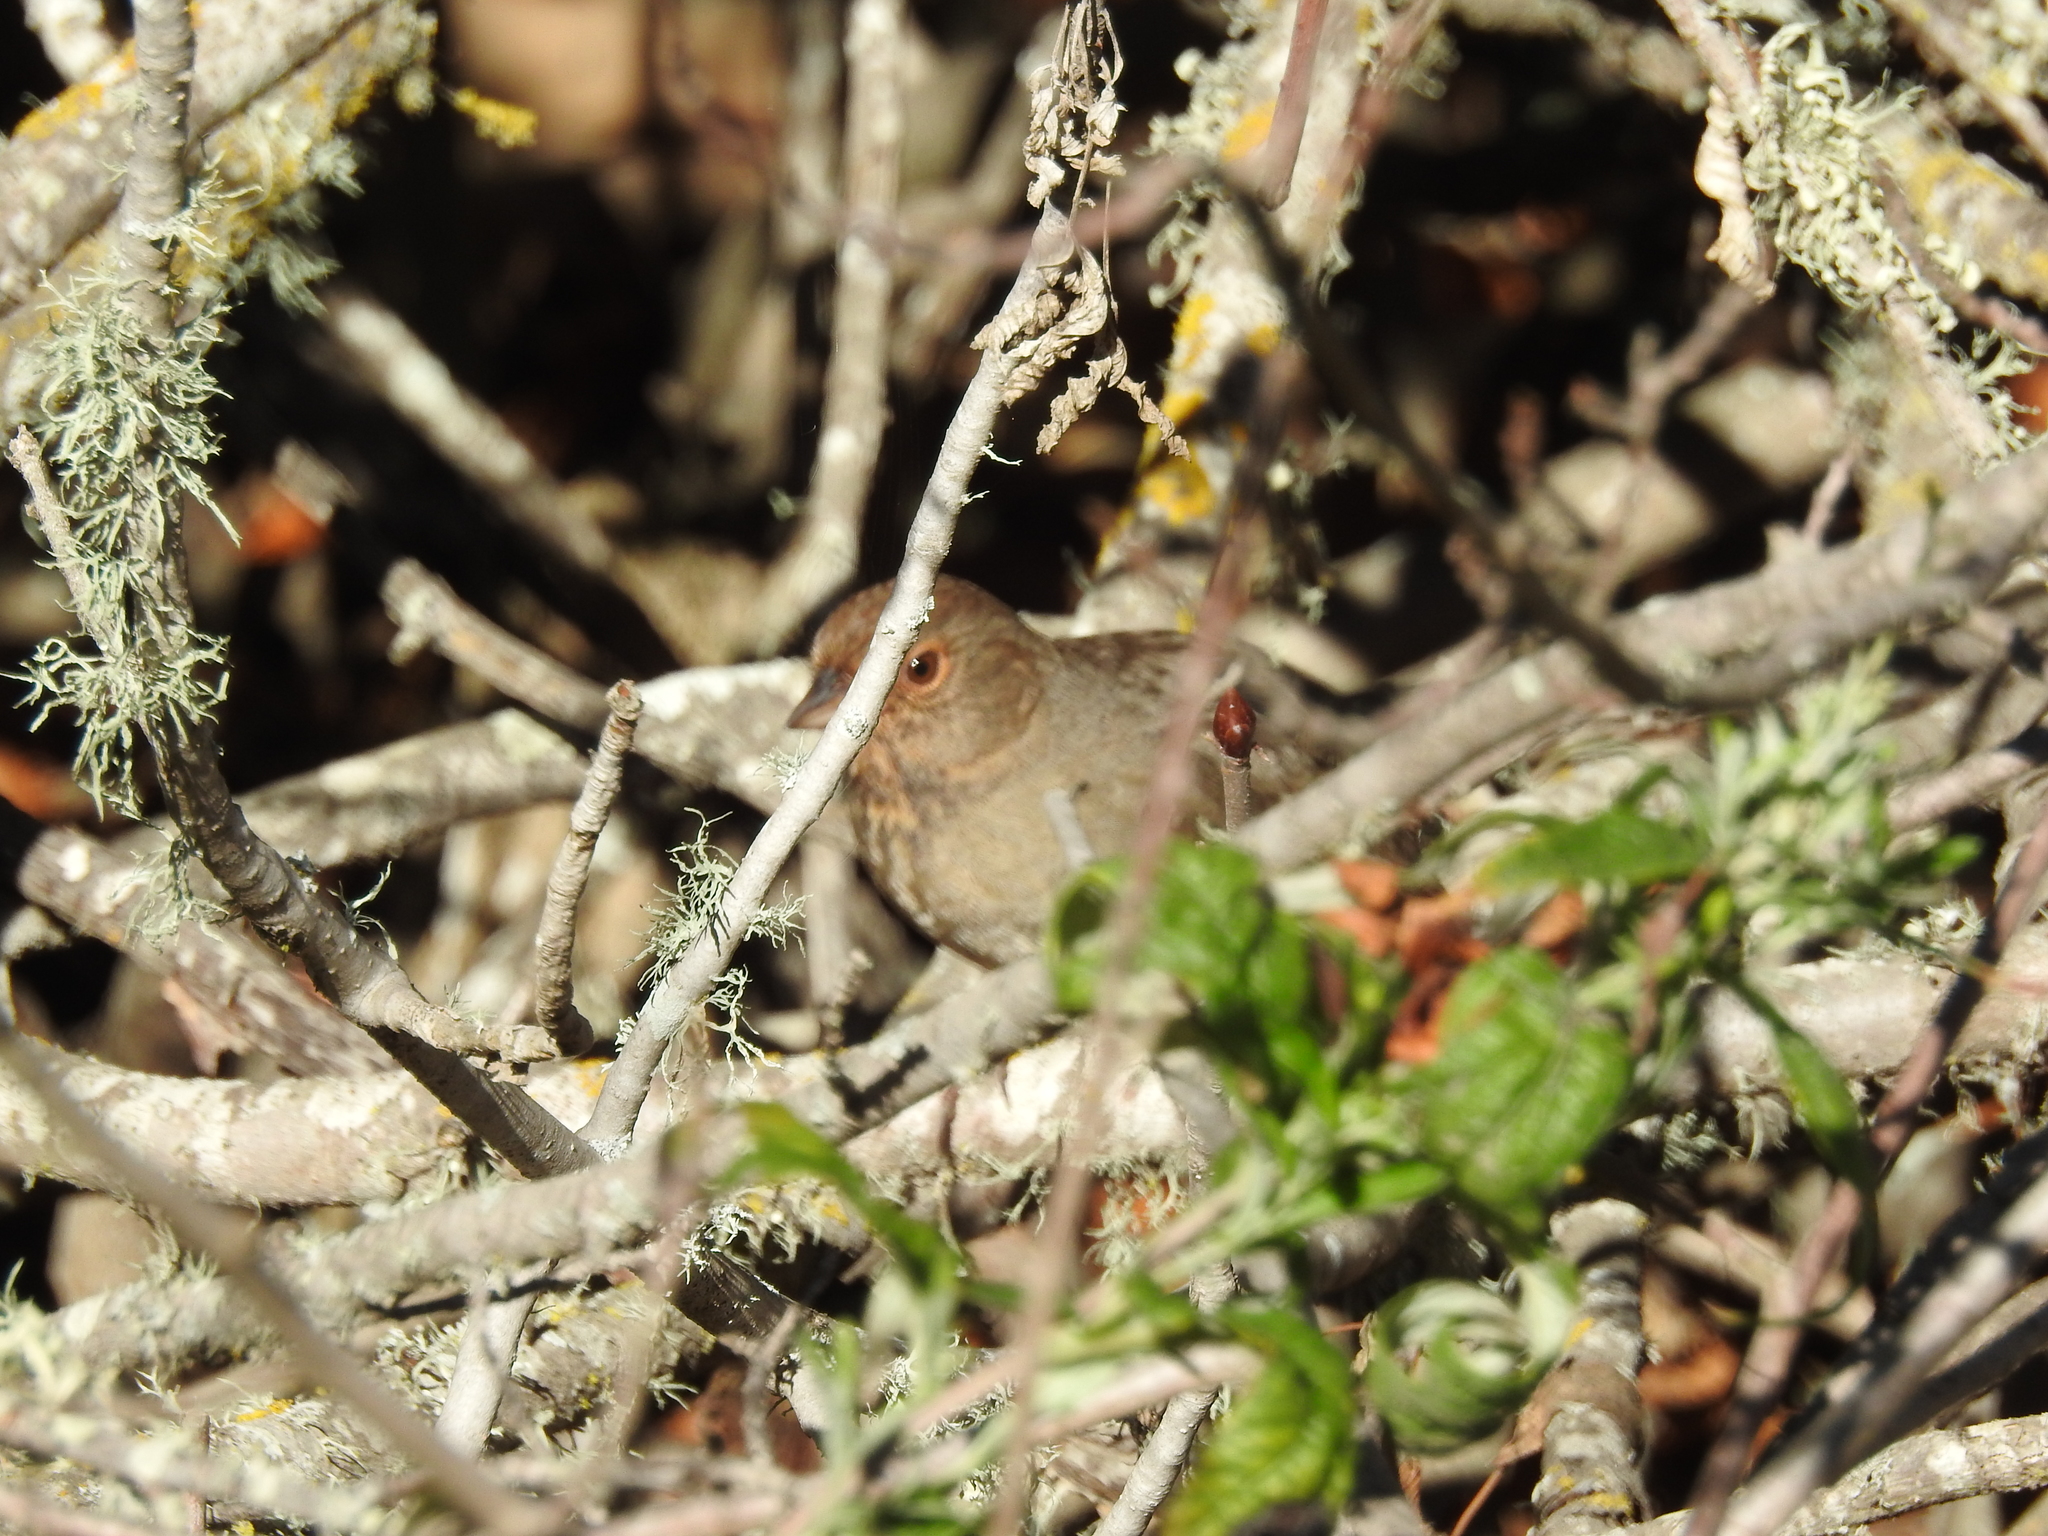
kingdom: Animalia
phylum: Chordata
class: Aves
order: Passeriformes
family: Passerellidae
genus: Melozone
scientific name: Melozone crissalis
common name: California towhee
